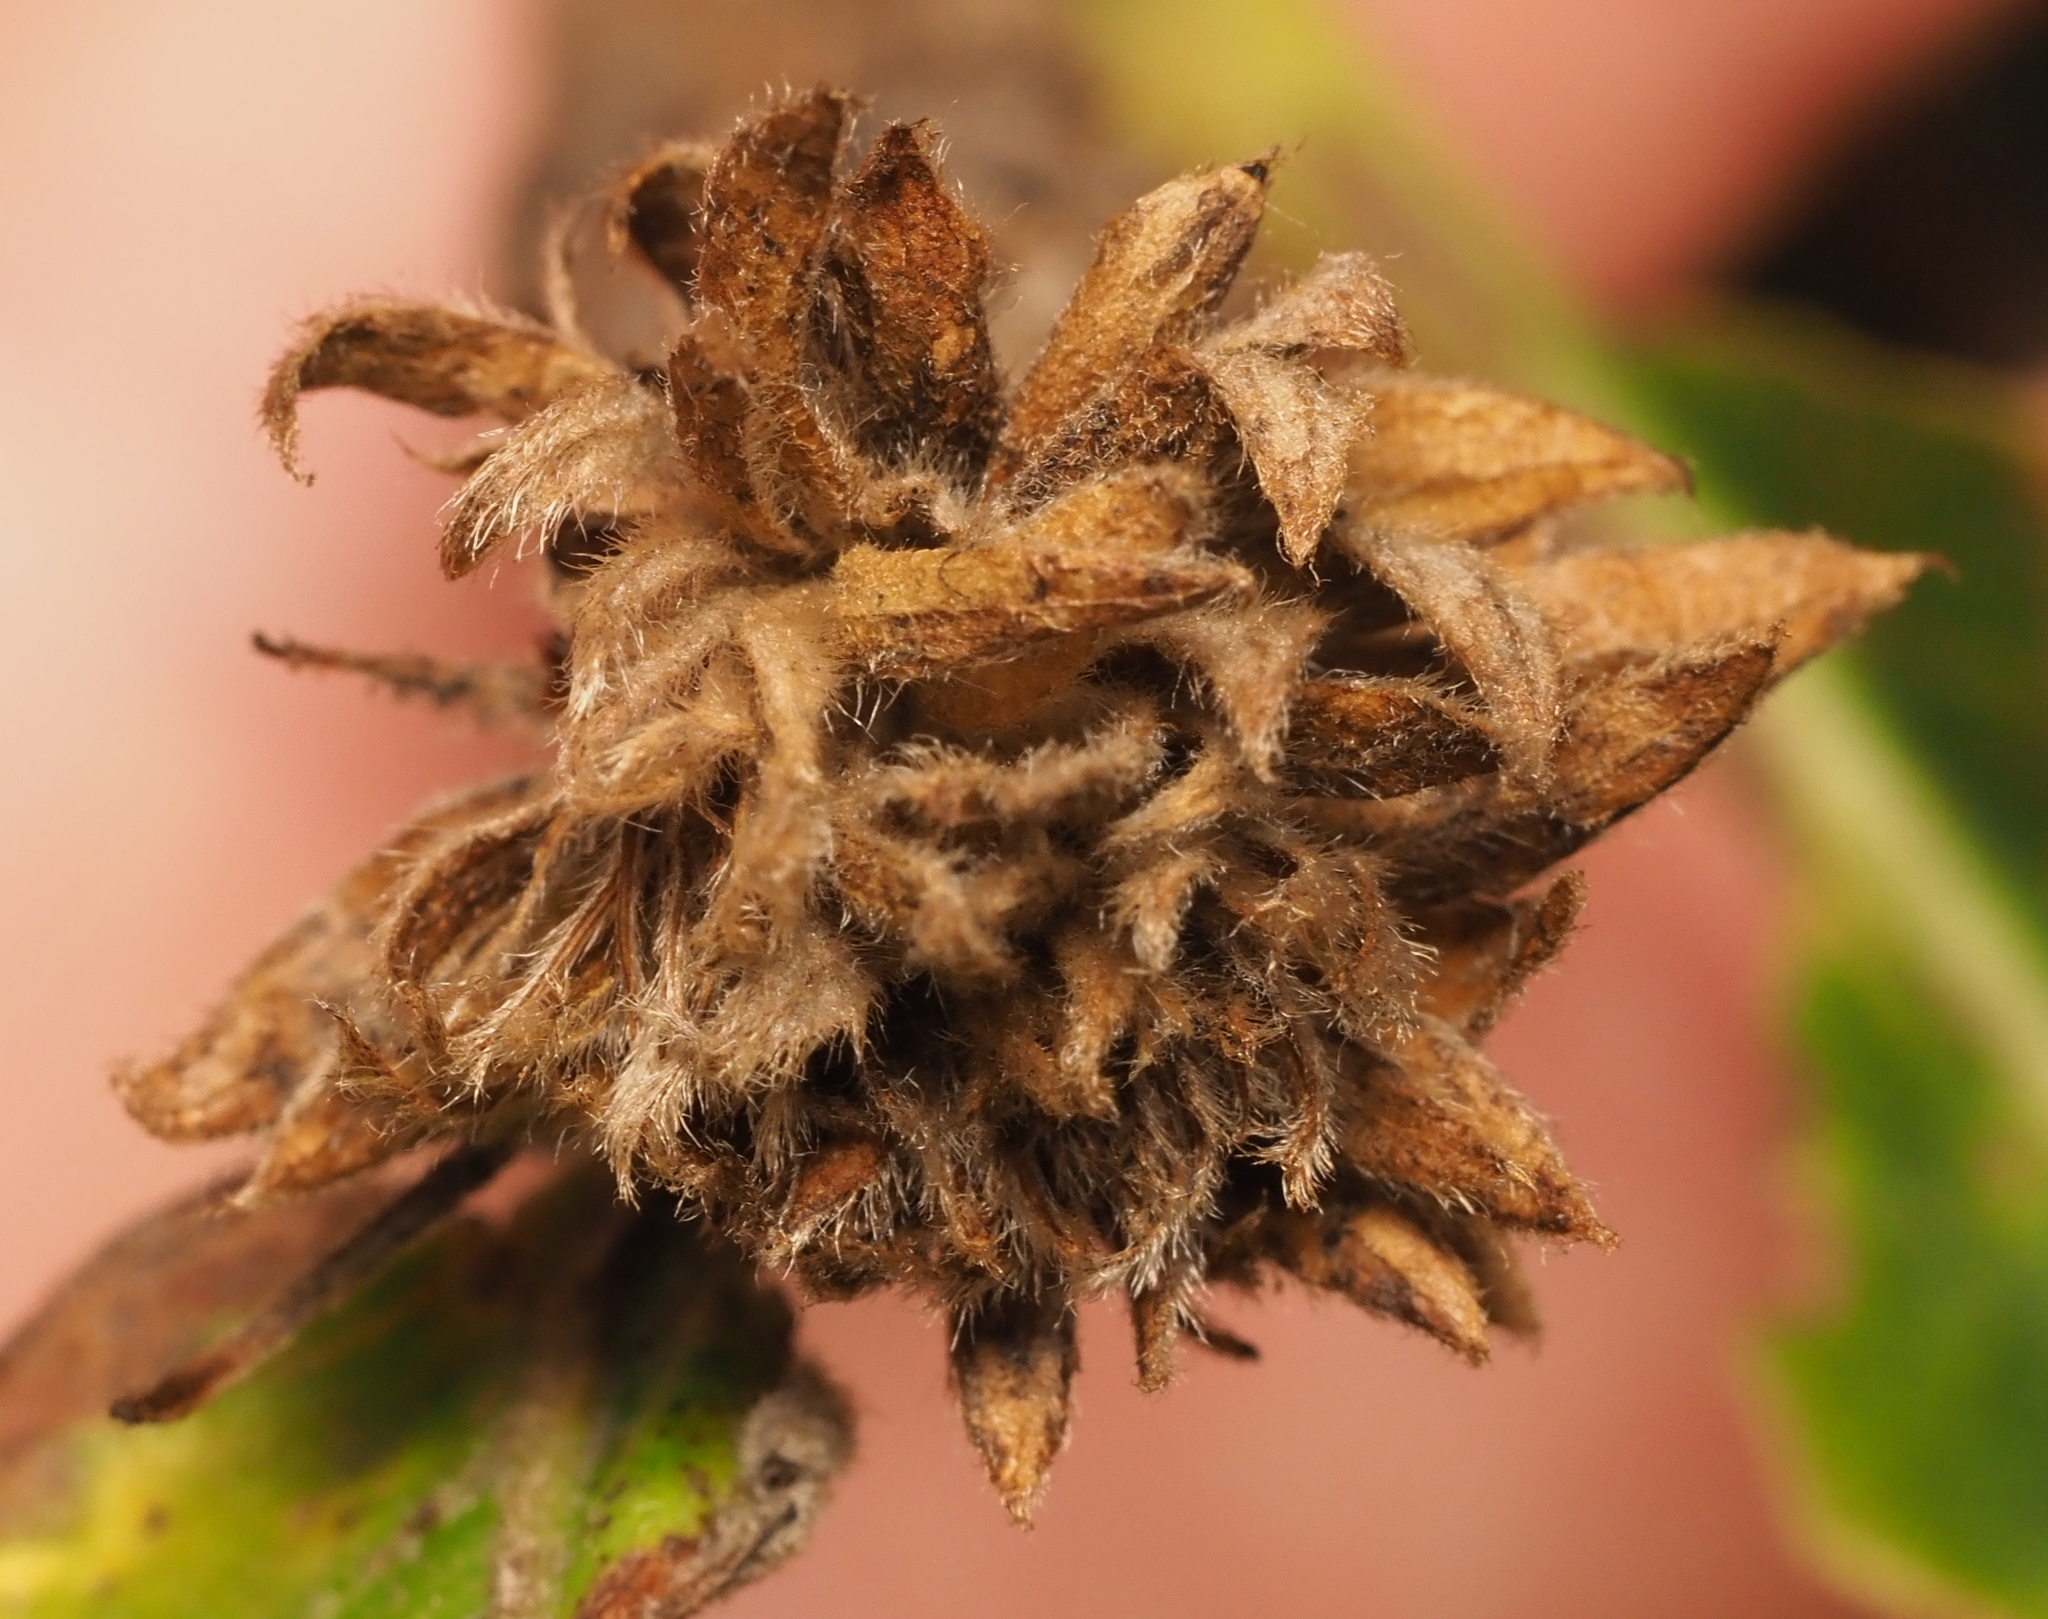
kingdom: Animalia
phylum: Arthropoda
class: Insecta
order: Hymenoptera
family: Cynipidae
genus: Andricus
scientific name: Andricus
